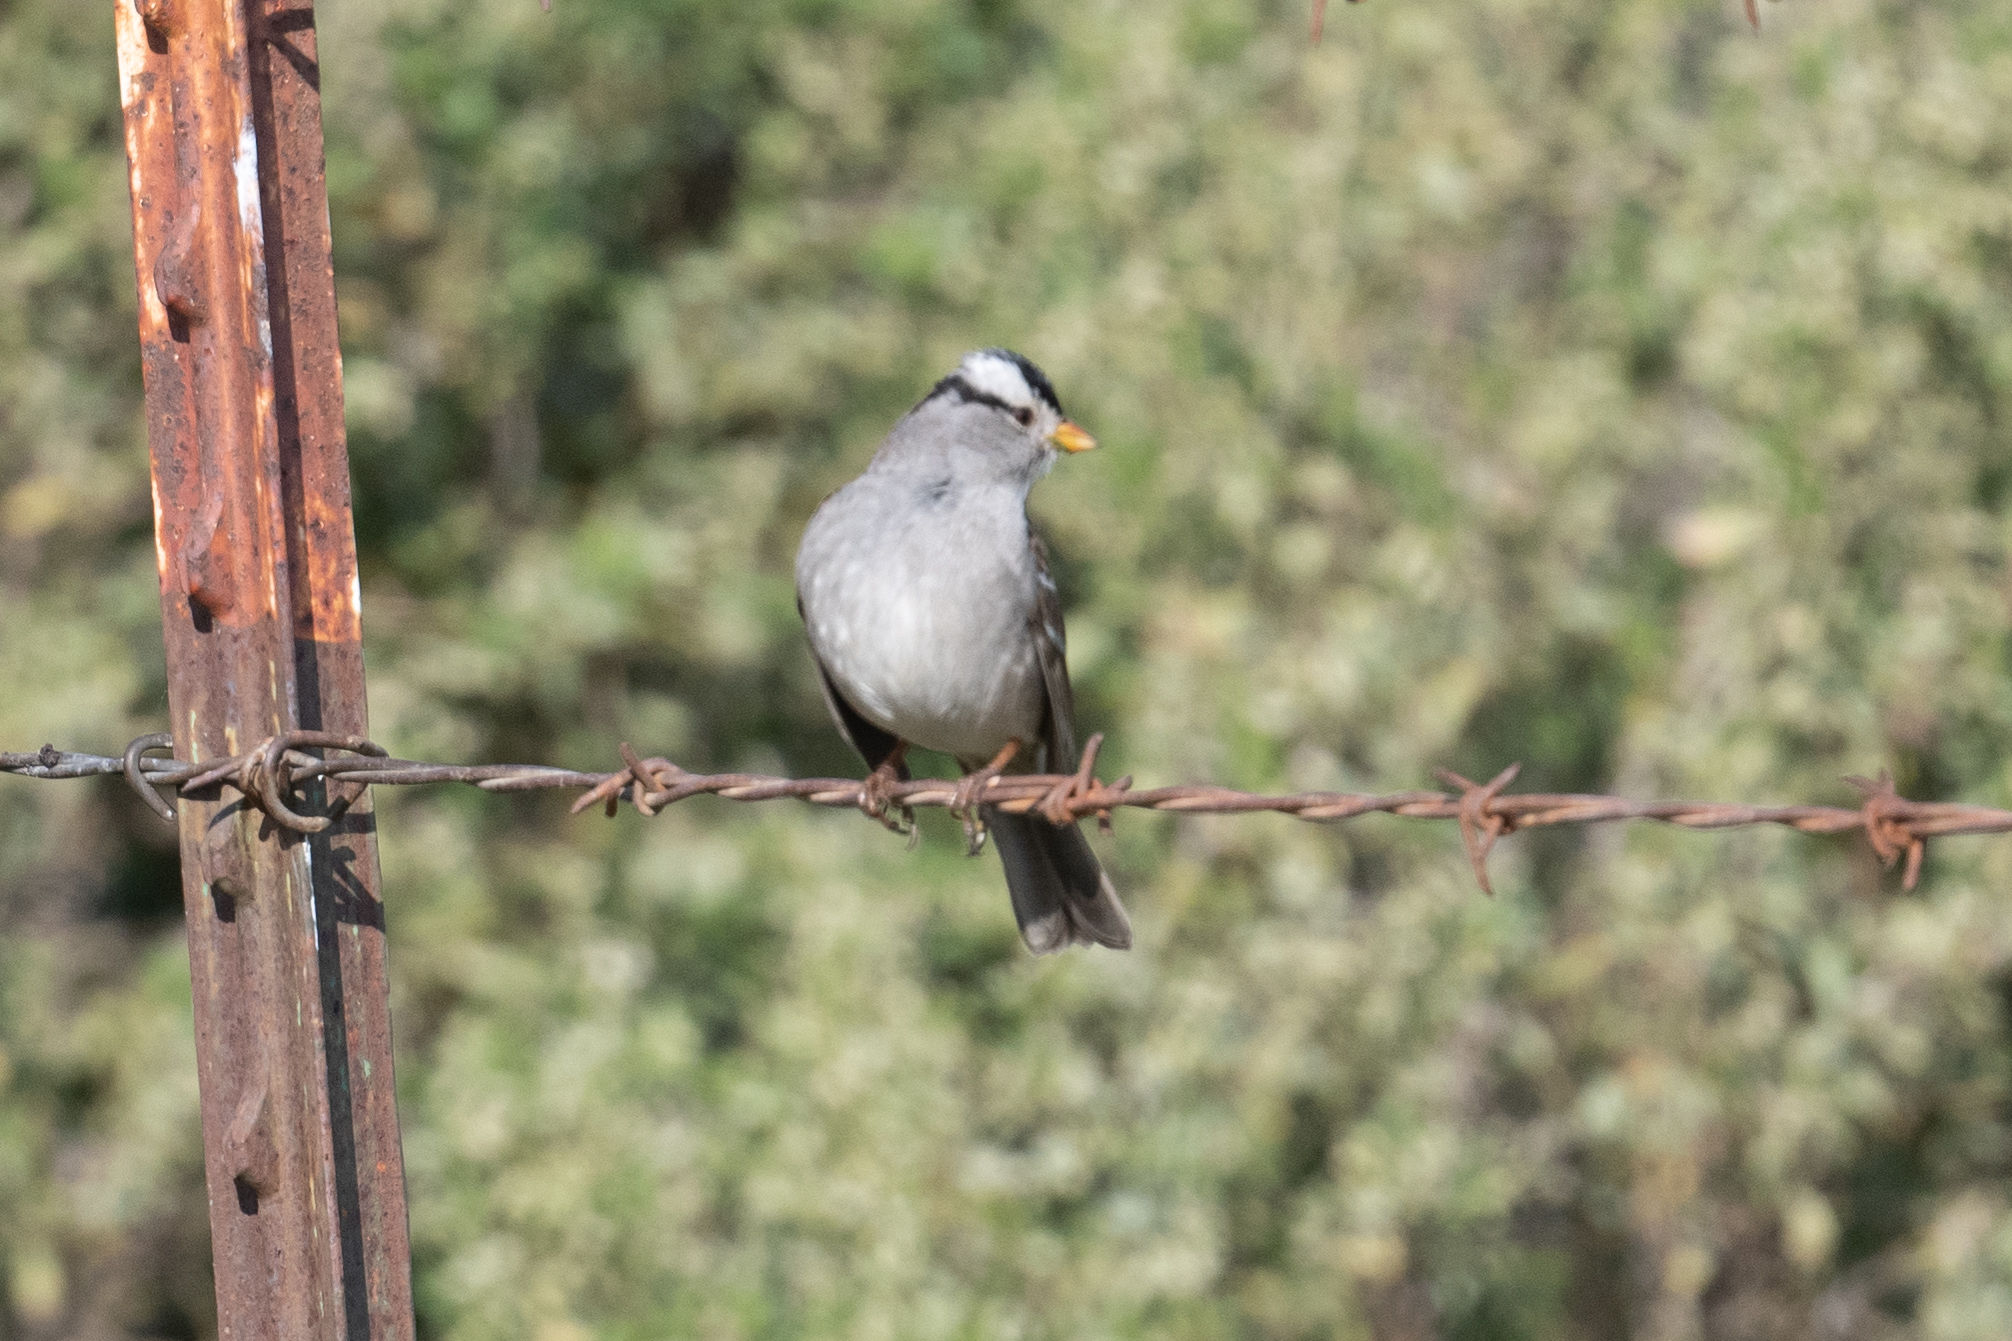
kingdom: Animalia
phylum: Chordata
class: Aves
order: Passeriformes
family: Passerellidae
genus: Zonotrichia
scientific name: Zonotrichia leucophrys
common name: White-crowned sparrow
